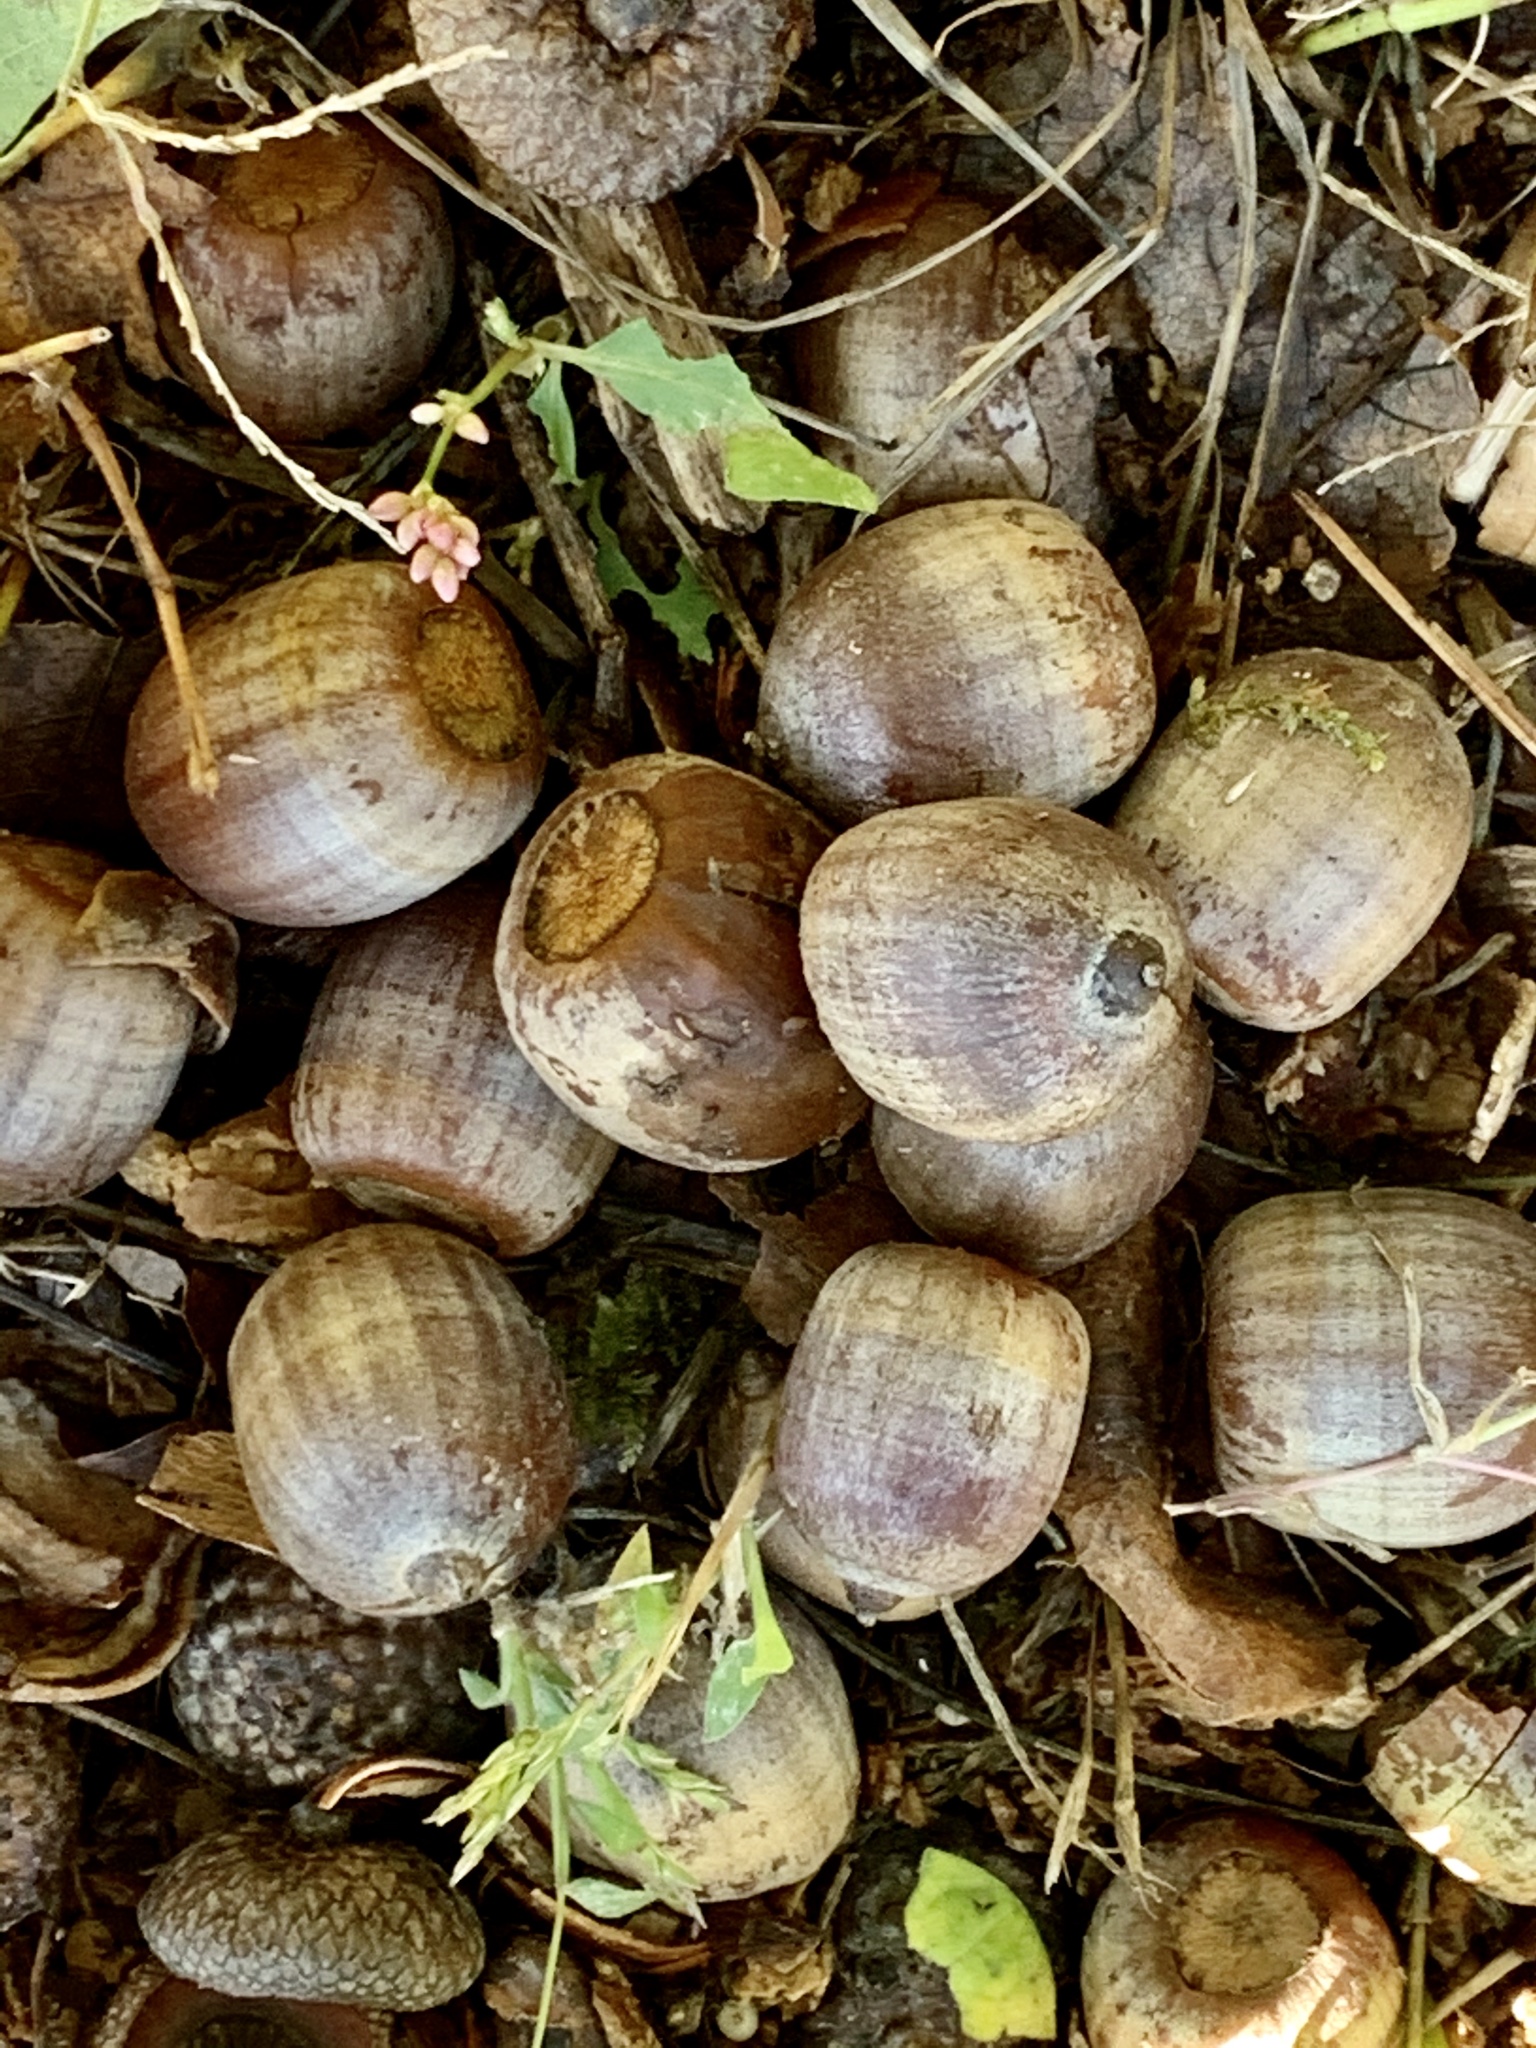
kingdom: Plantae
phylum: Tracheophyta
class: Magnoliopsida
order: Fagales
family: Fagaceae
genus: Quercus
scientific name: Quercus rubra
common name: Red oak
